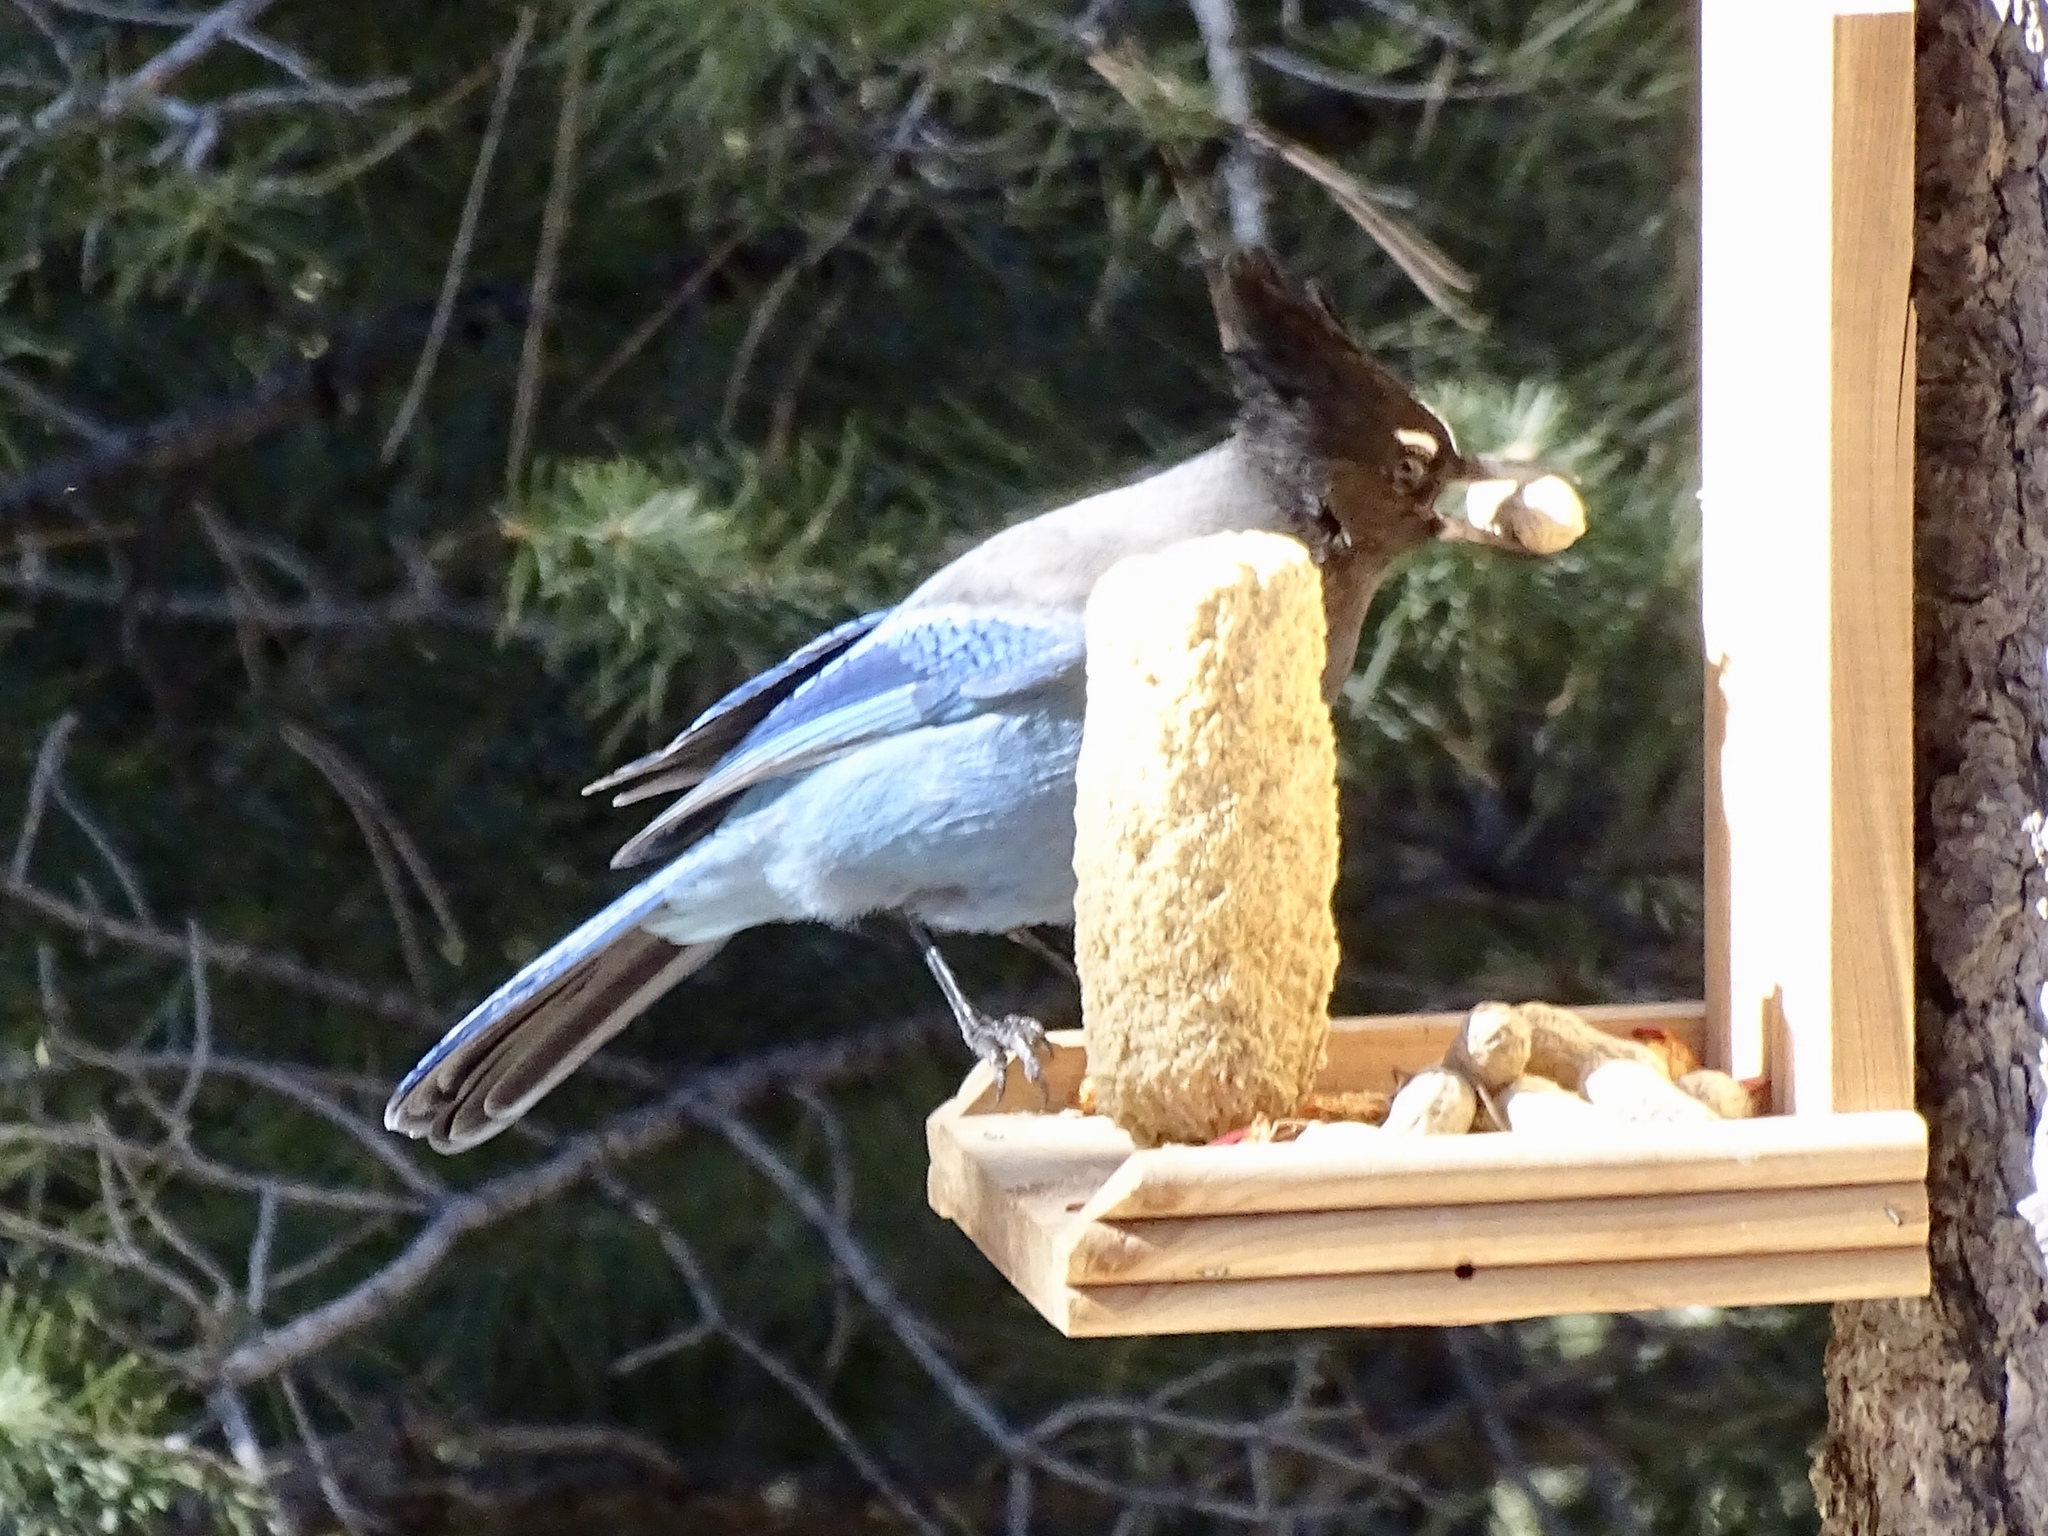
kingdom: Animalia
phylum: Chordata
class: Aves
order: Passeriformes
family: Corvidae
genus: Cyanocitta
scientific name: Cyanocitta stelleri
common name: Steller's jay
